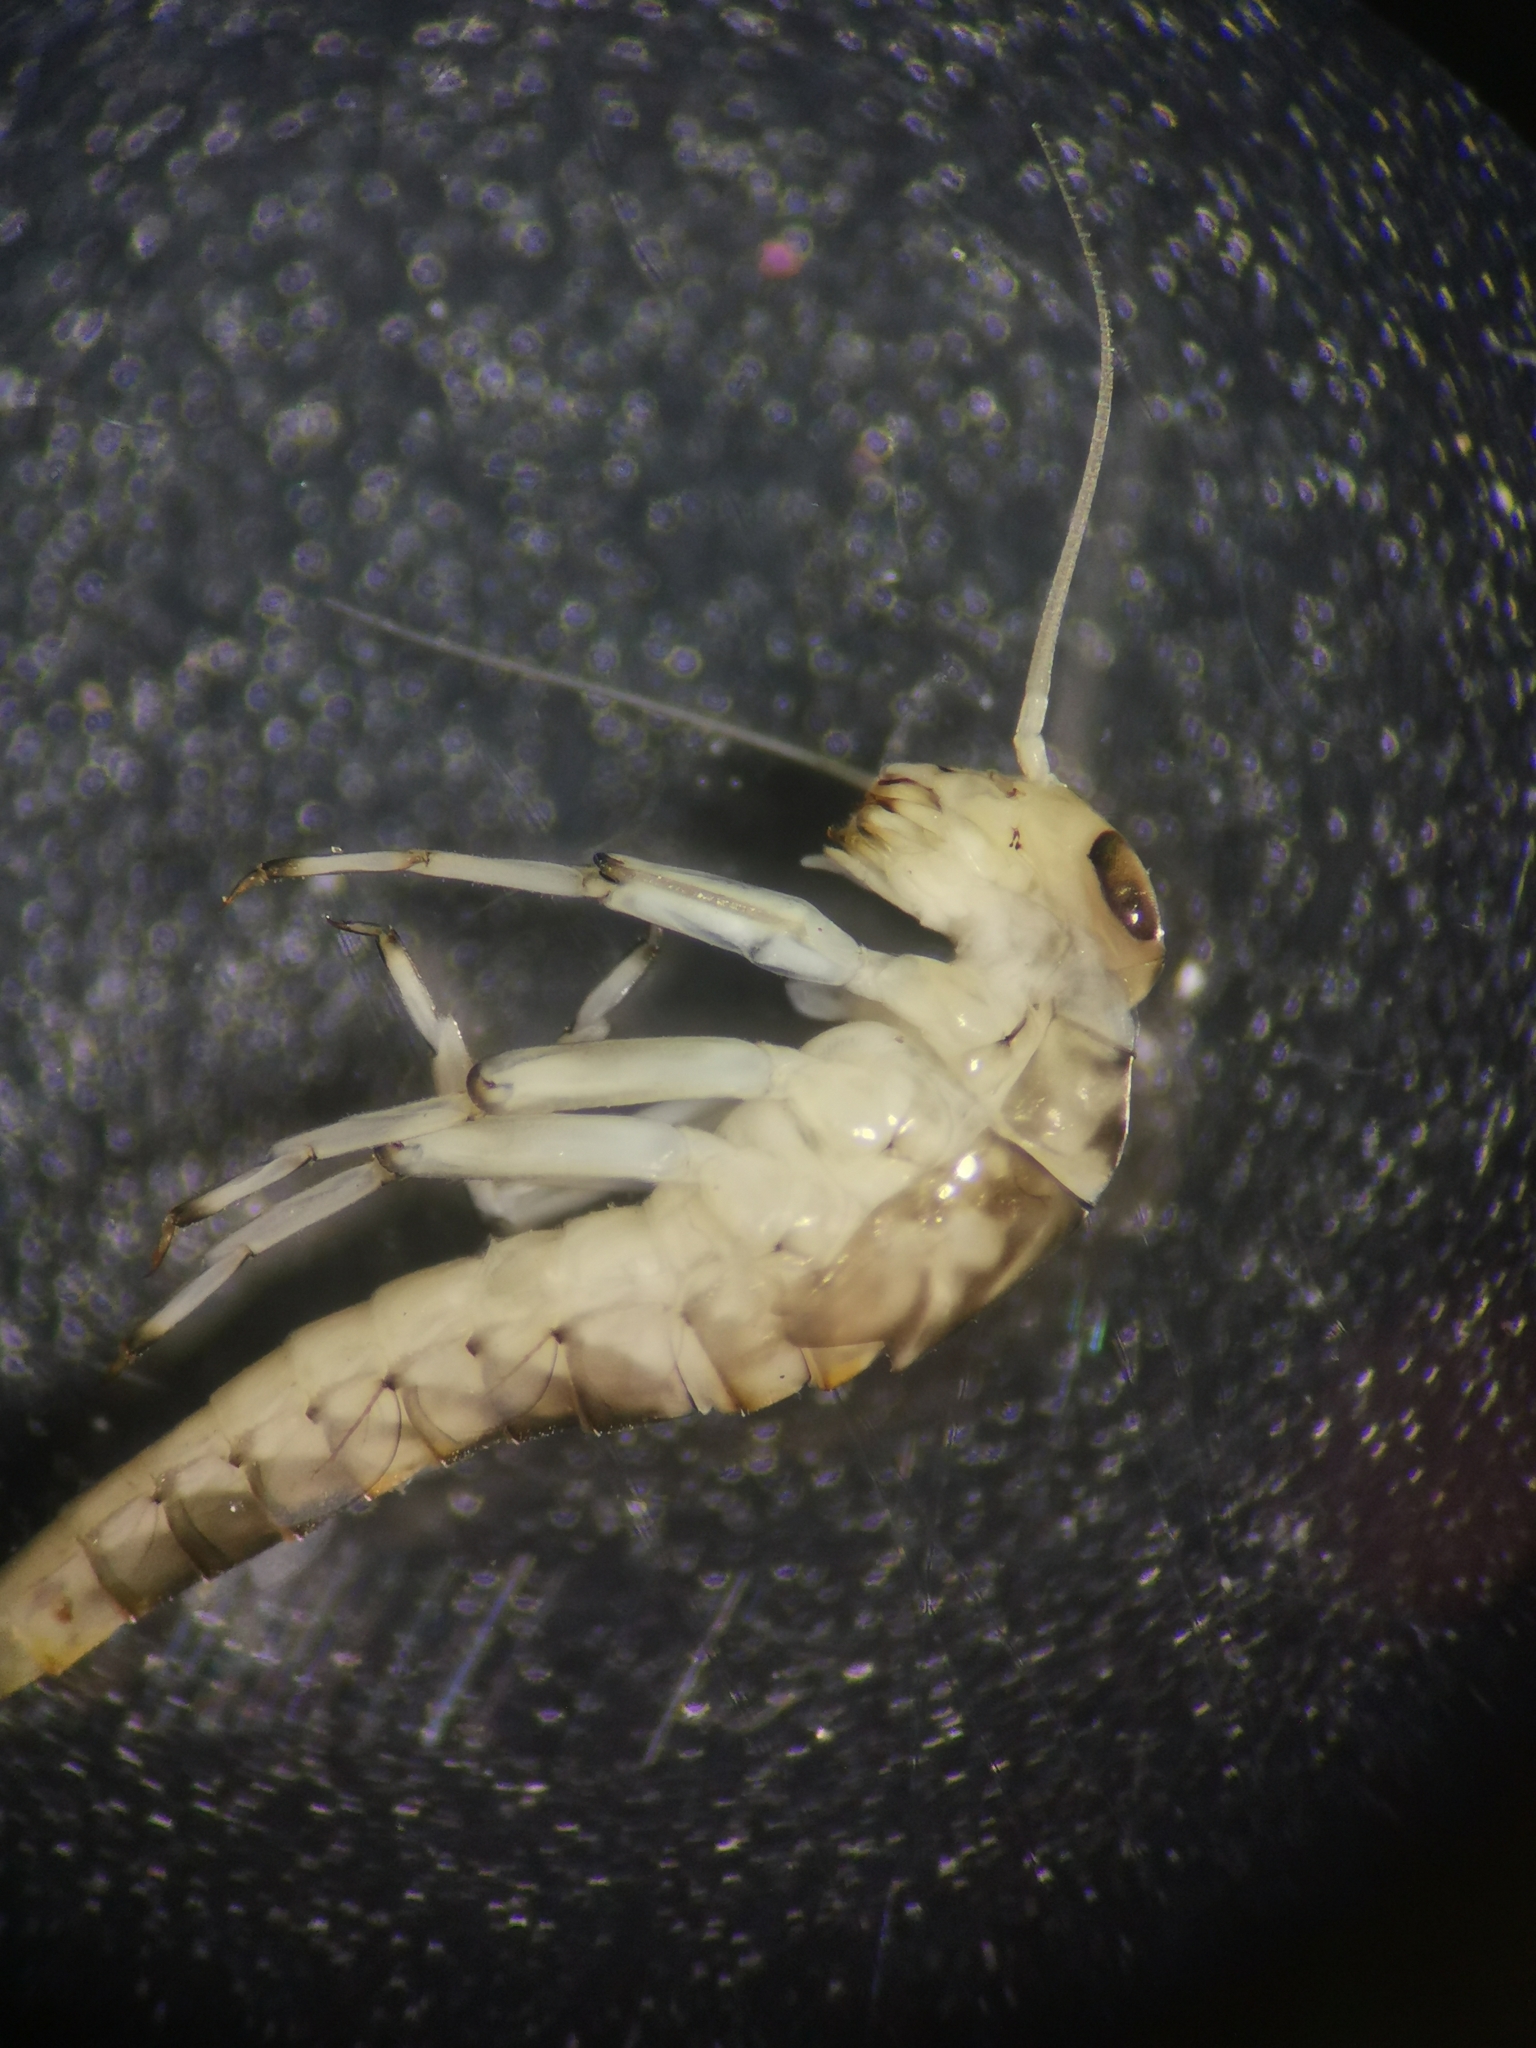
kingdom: Animalia
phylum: Arthropoda
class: Insecta
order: Ephemeroptera
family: Baetidae
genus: Centroptilum
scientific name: Centroptilum luteolum
